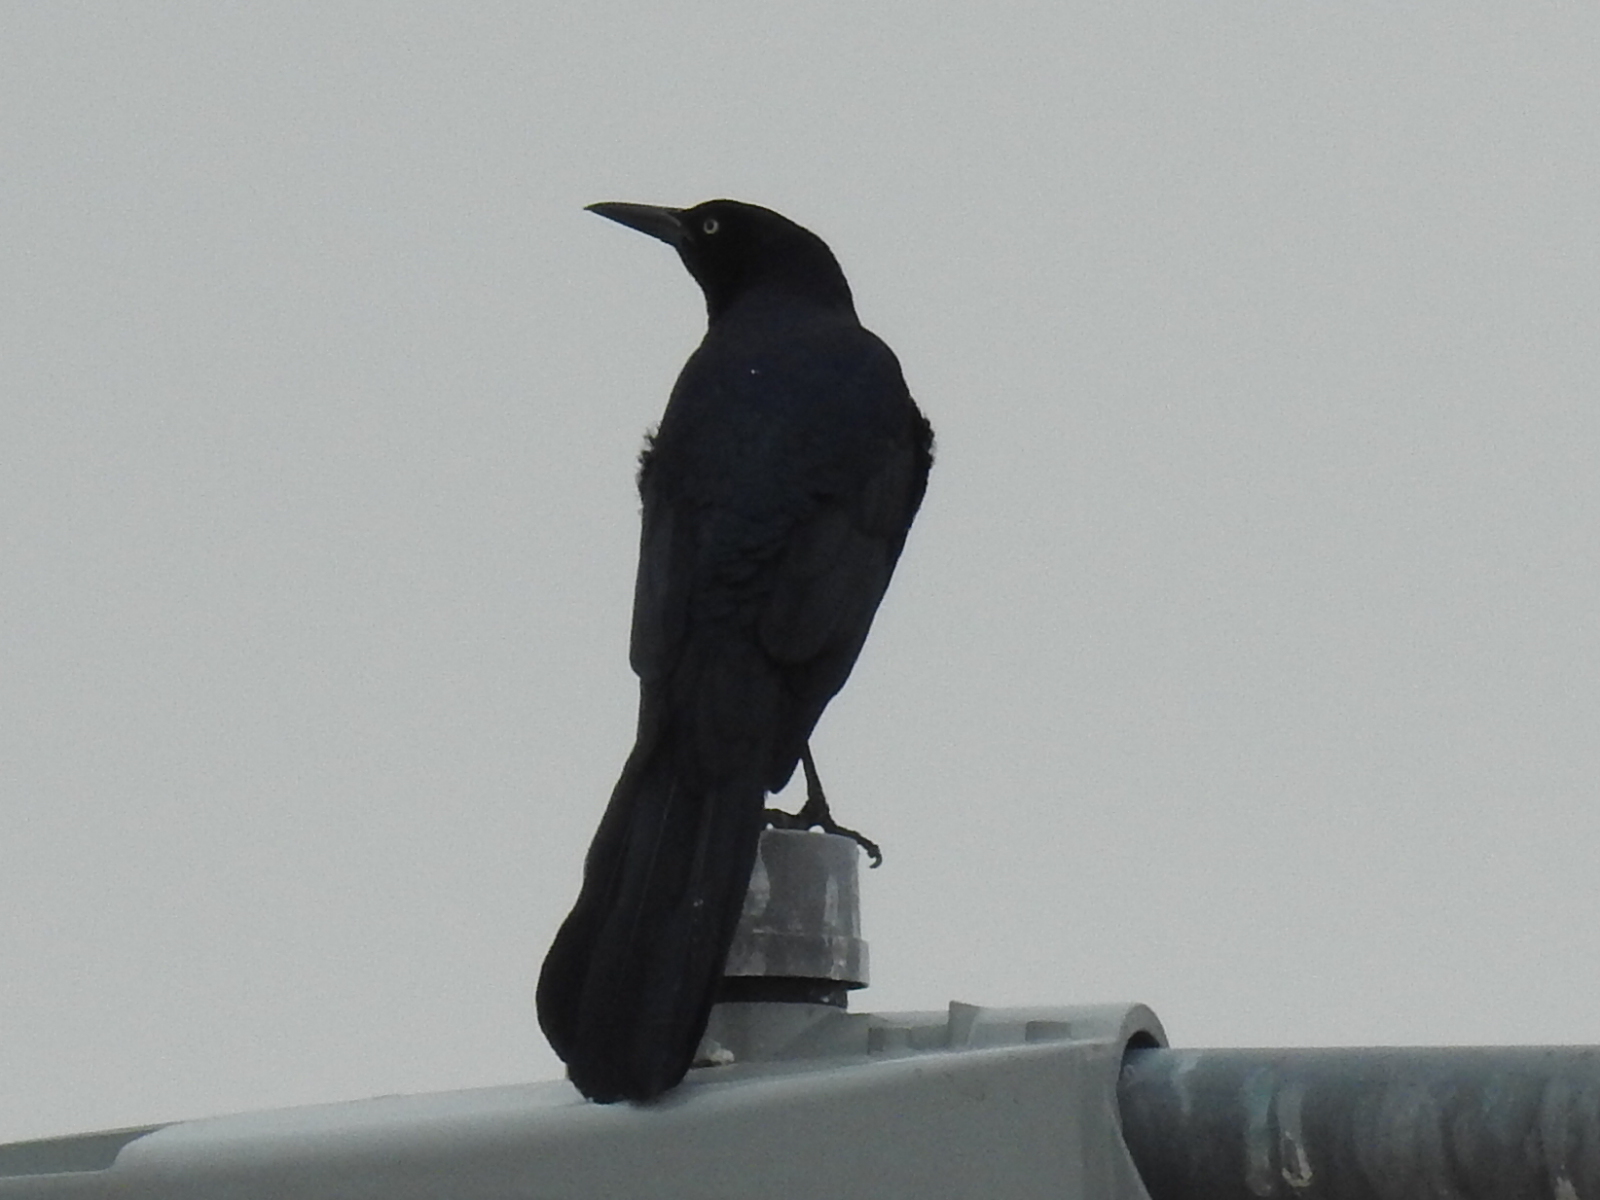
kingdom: Animalia
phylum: Chordata
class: Aves
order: Passeriformes
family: Icteridae
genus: Quiscalus
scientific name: Quiscalus mexicanus
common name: Great-tailed grackle
